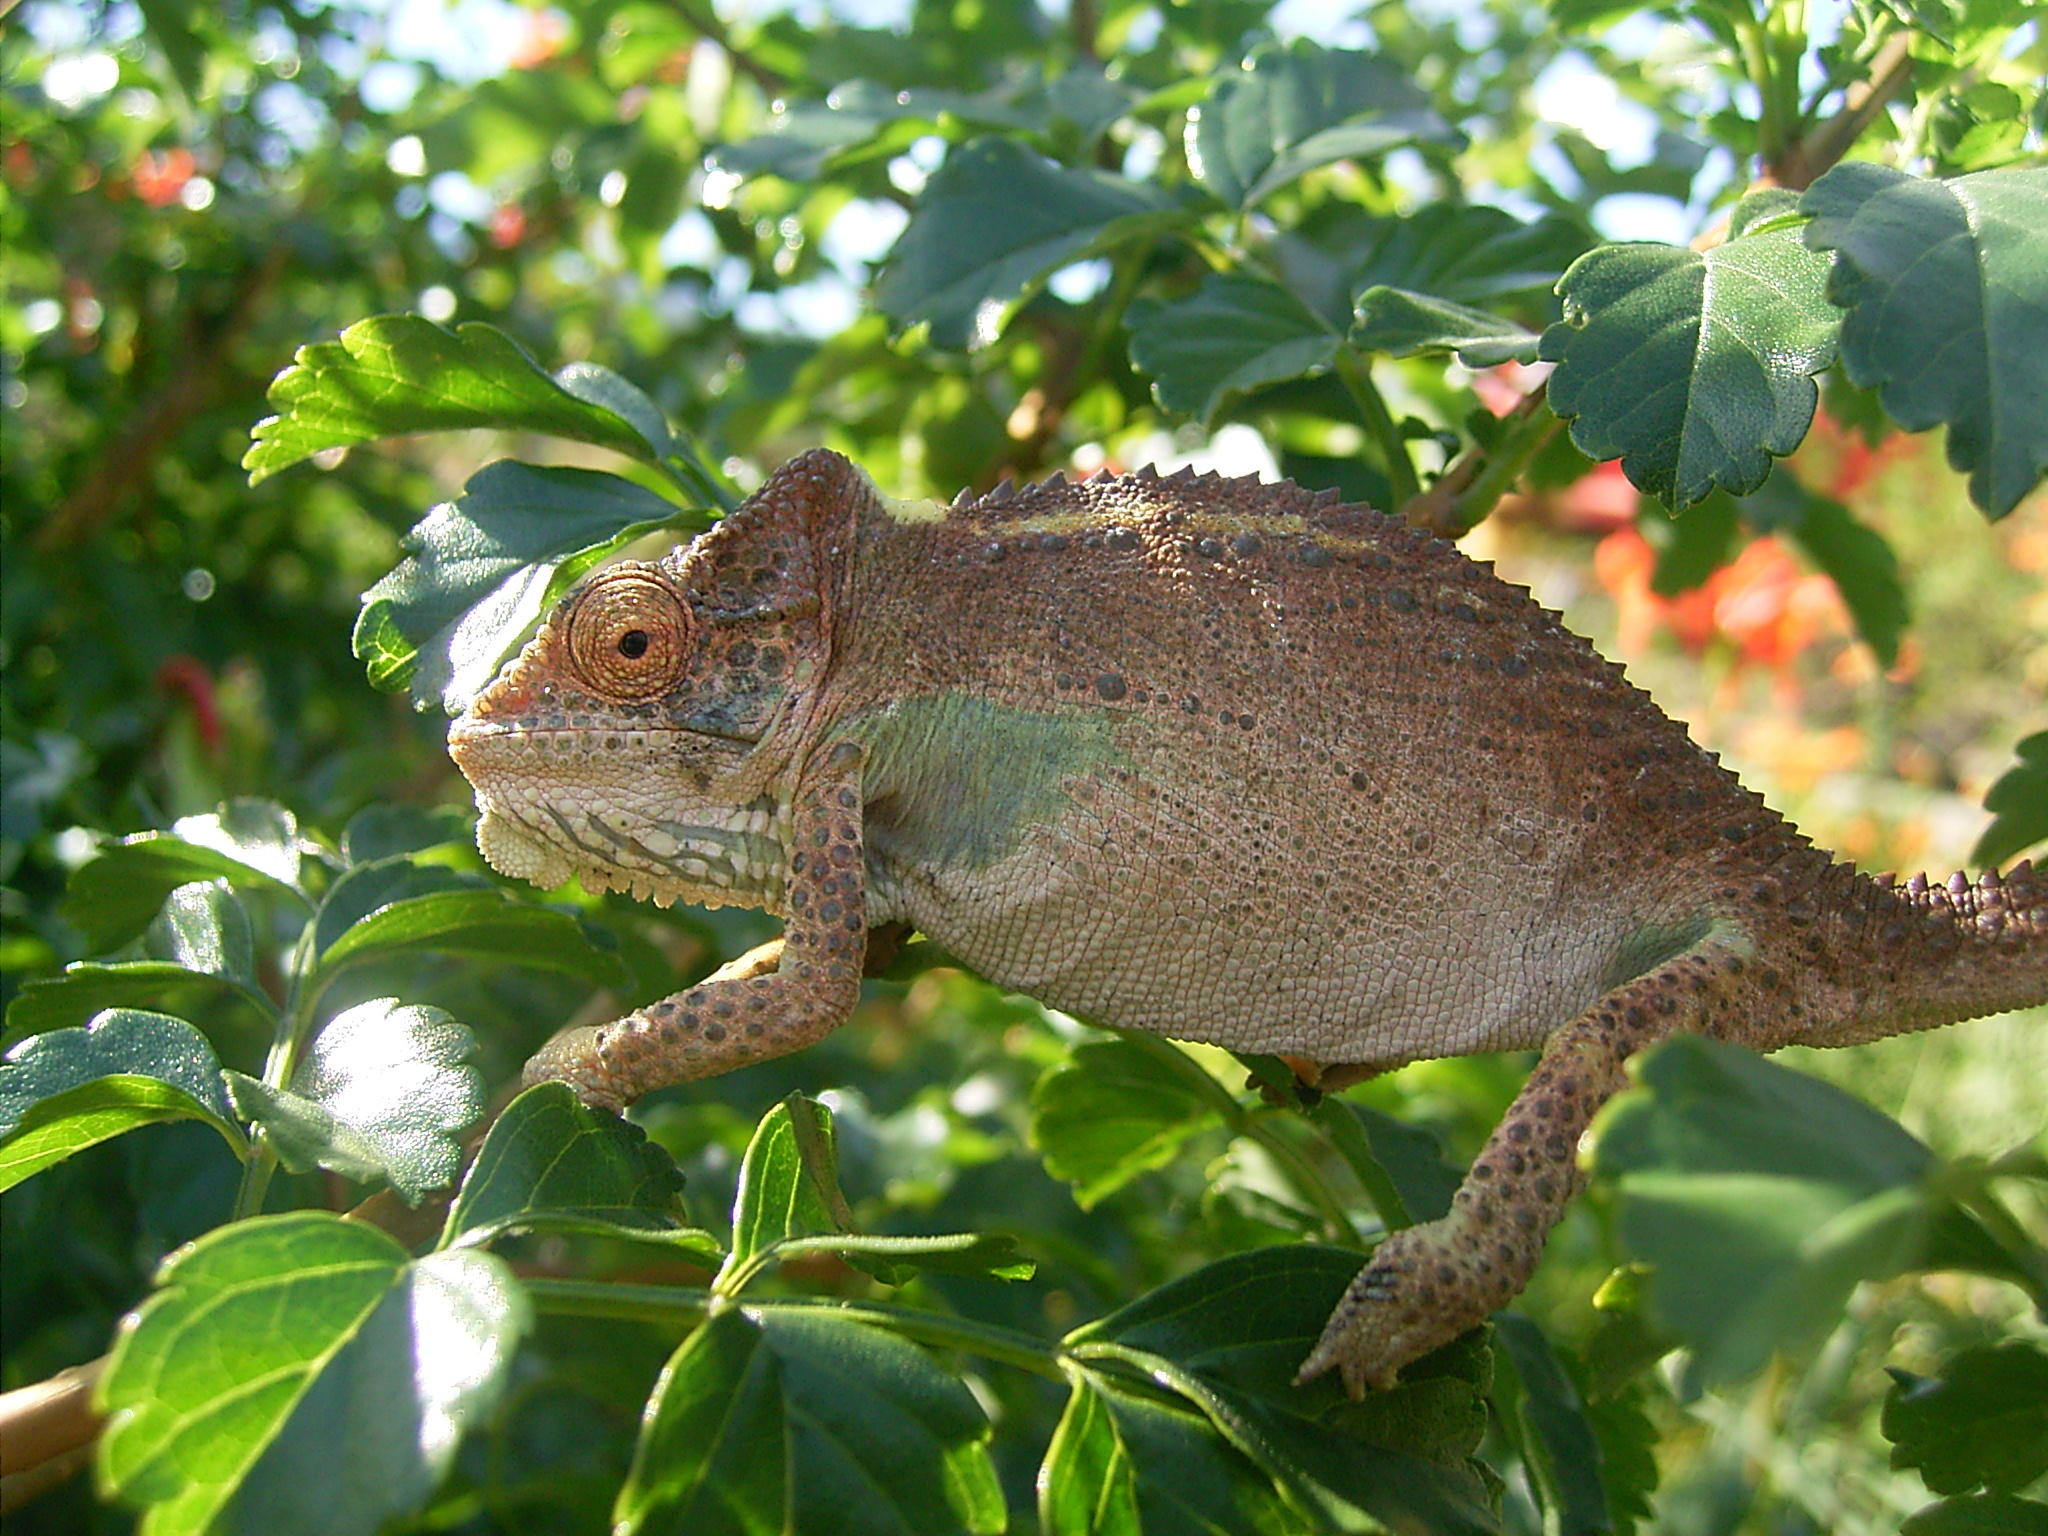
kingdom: Animalia
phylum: Chordata
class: Squamata
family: Chamaeleonidae
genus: Bradypodion
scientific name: Bradypodion damaranum
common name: Knysna dwarf chameleon
